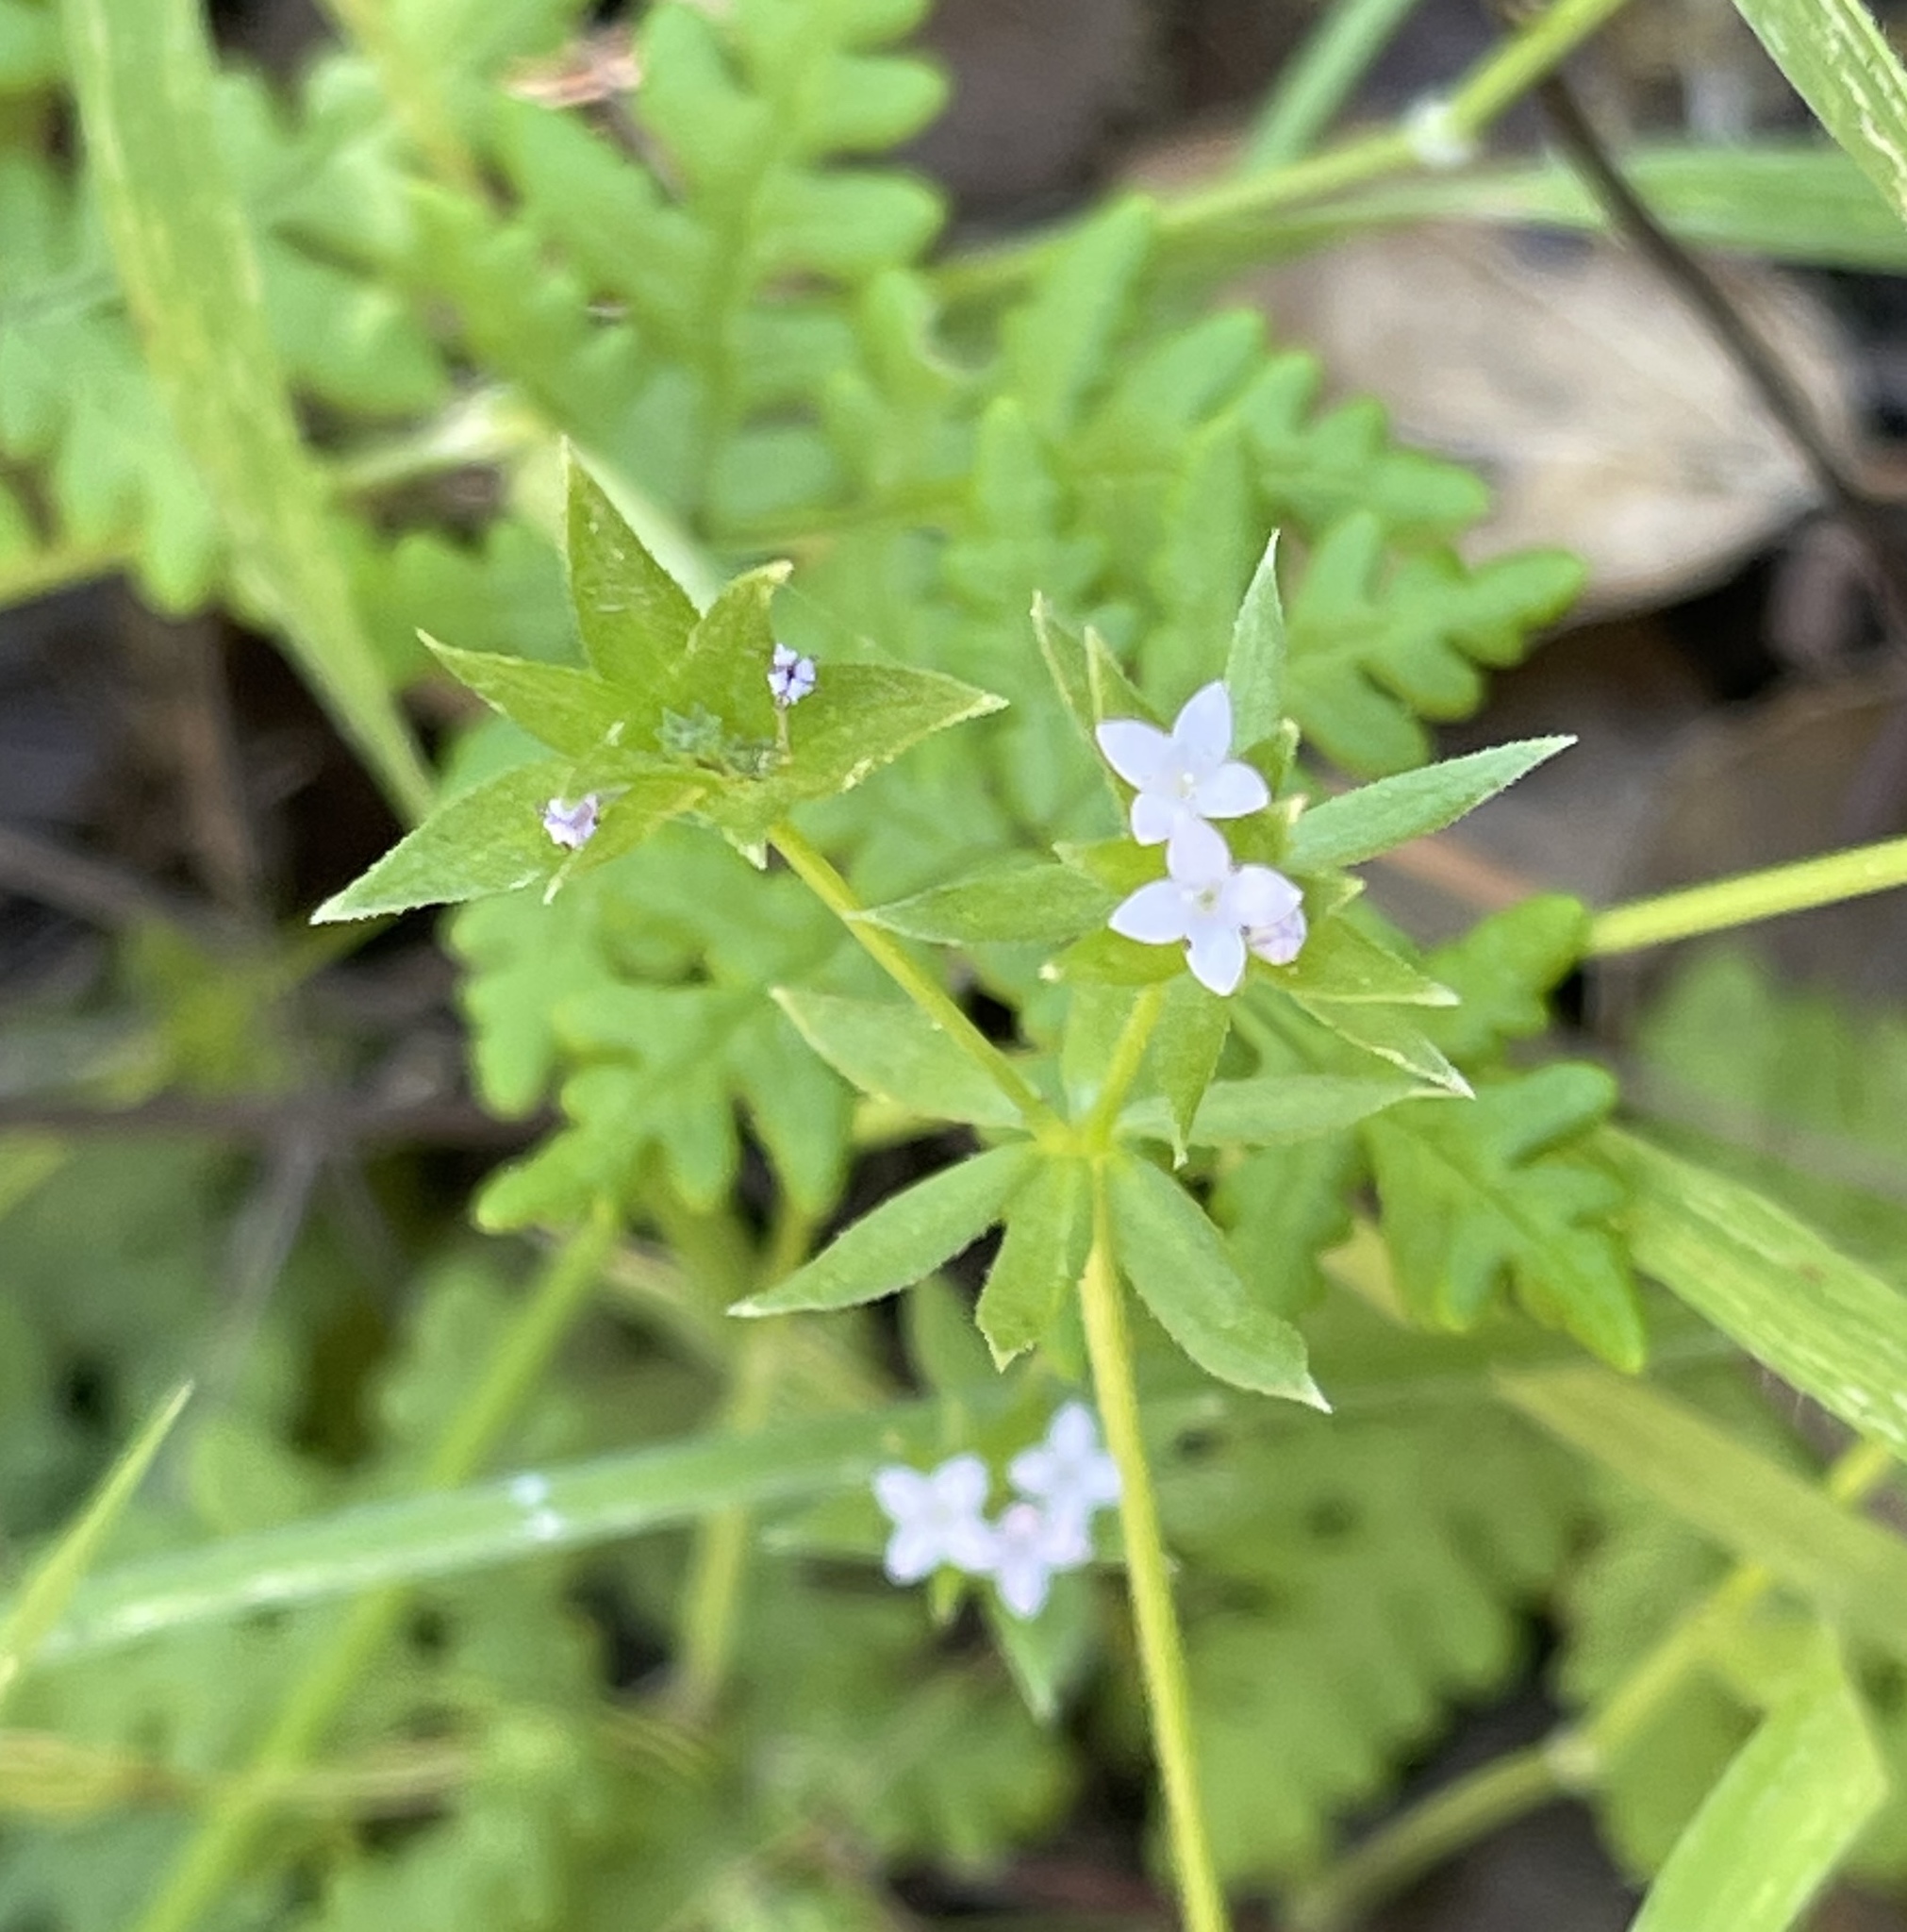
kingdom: Plantae
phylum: Tracheophyta
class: Magnoliopsida
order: Gentianales
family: Rubiaceae
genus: Sherardia
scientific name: Sherardia arvensis
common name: Field madder
